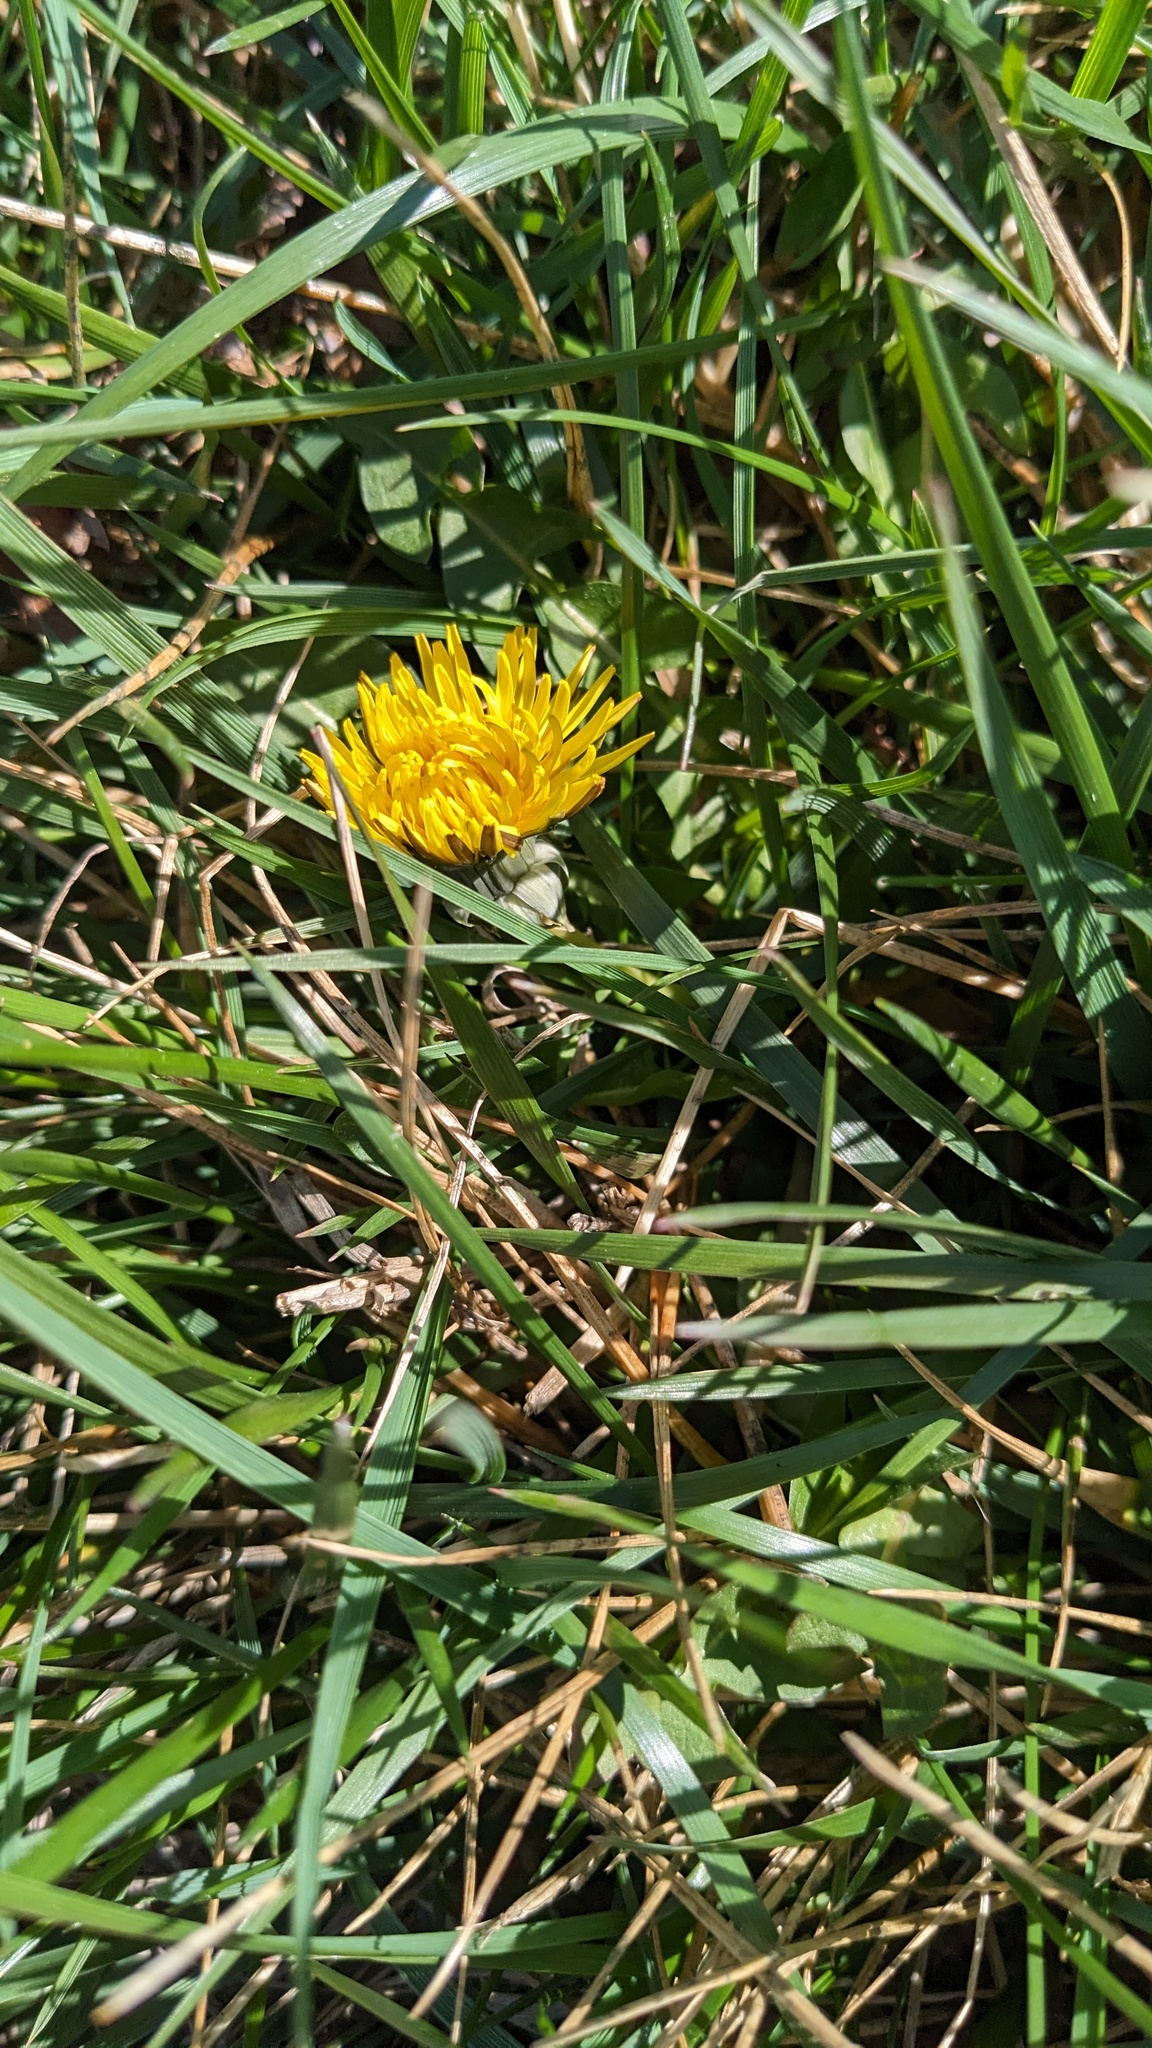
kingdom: Plantae
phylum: Tracheophyta
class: Magnoliopsida
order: Asterales
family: Asteraceae
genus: Taraxacum
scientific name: Taraxacum
